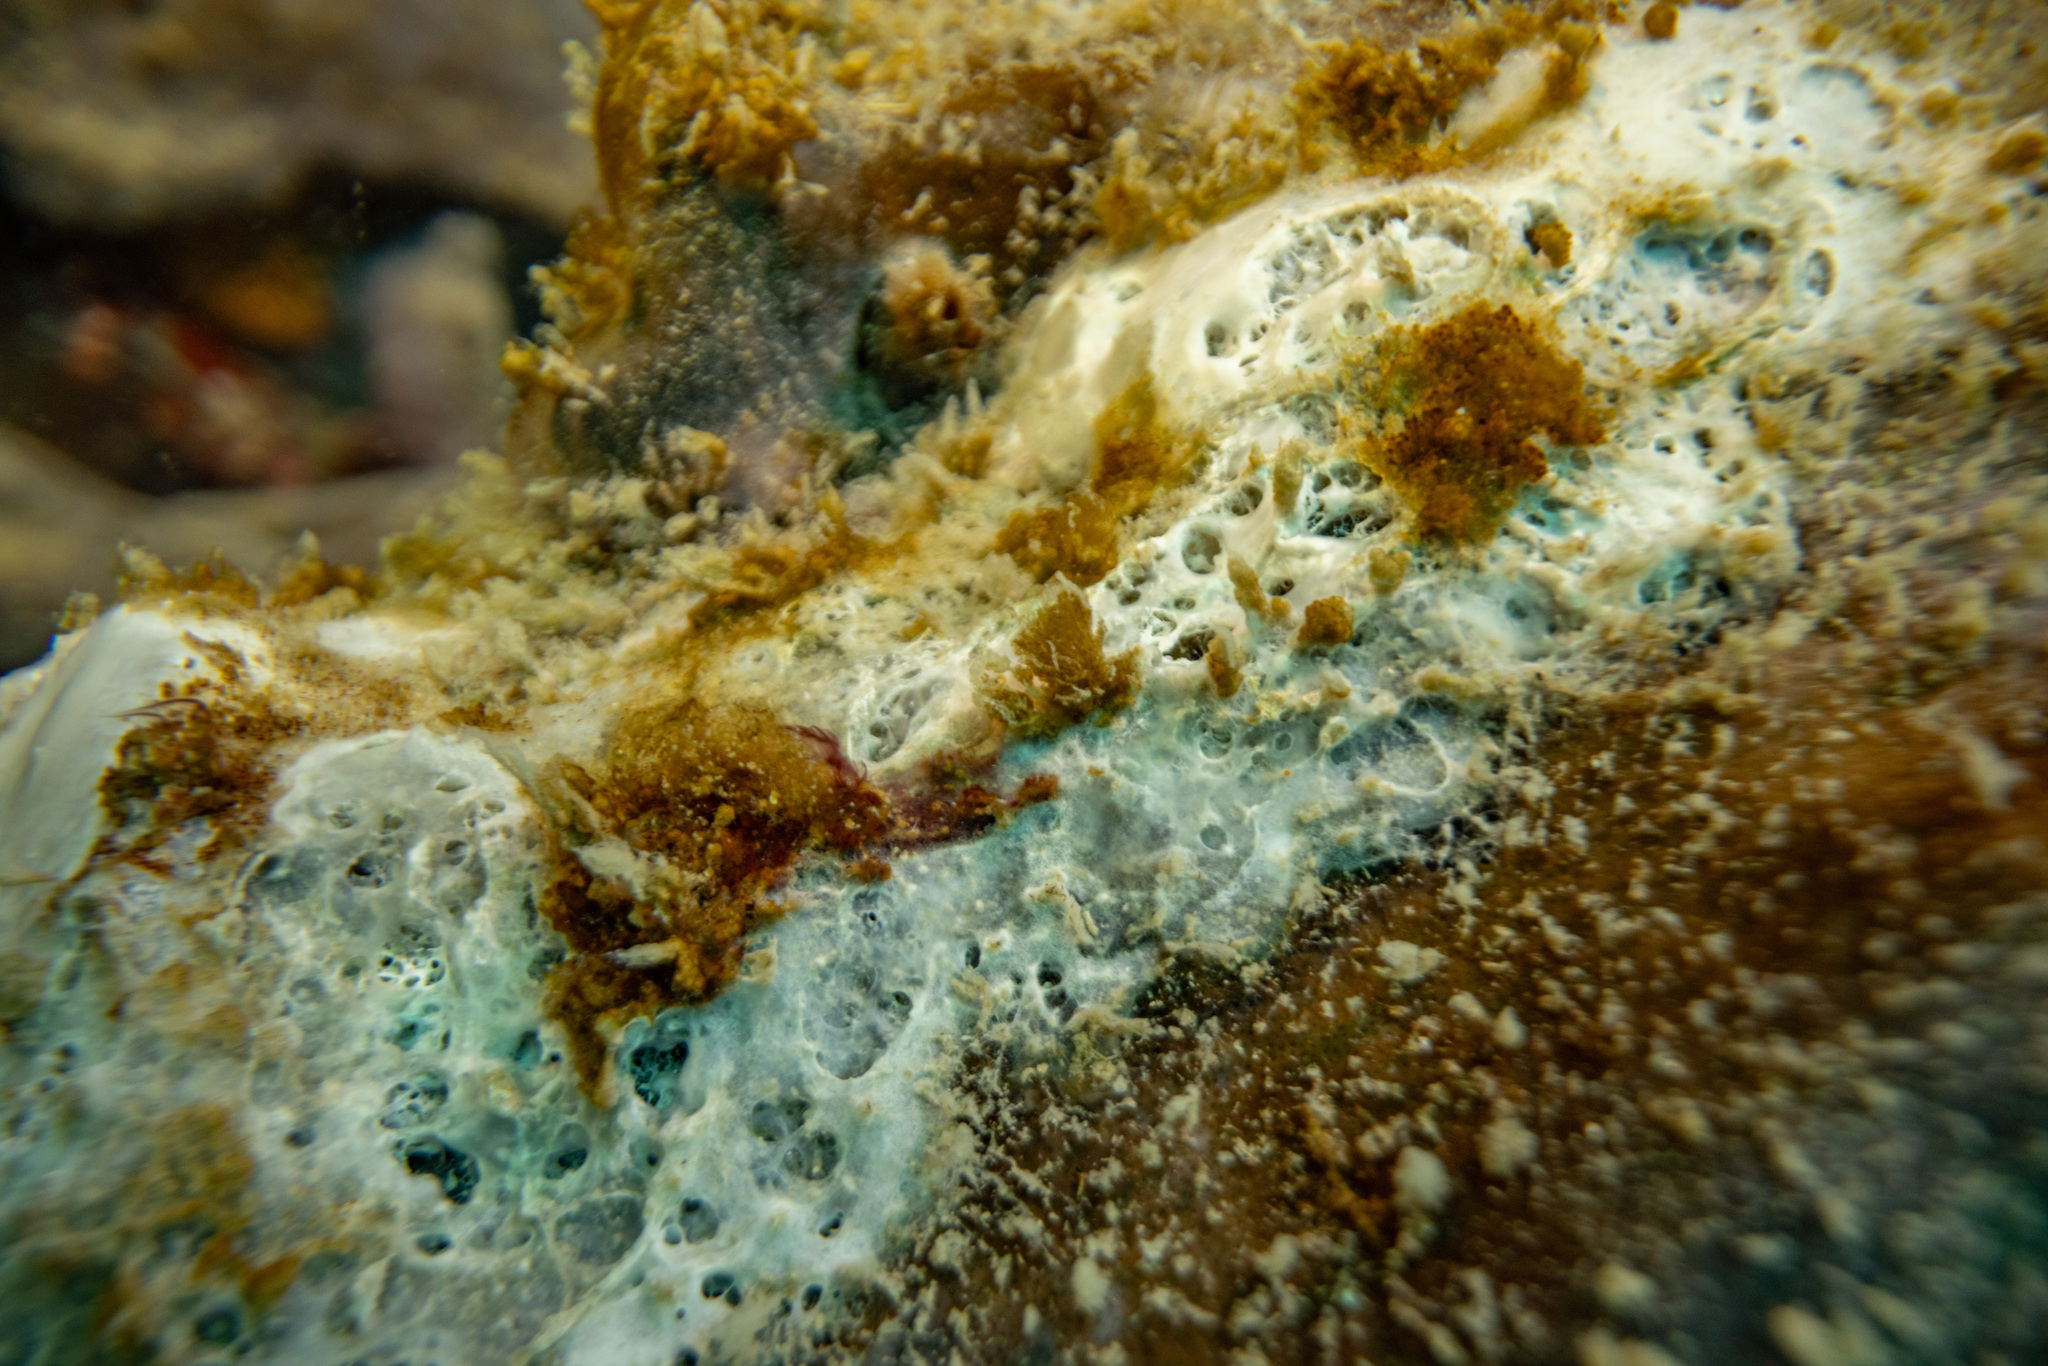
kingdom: Animalia
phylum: Porifera
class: Demospongiae
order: Tetractinellida
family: Ancorinidae
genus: Ecionemia
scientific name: Ecionemia alata
